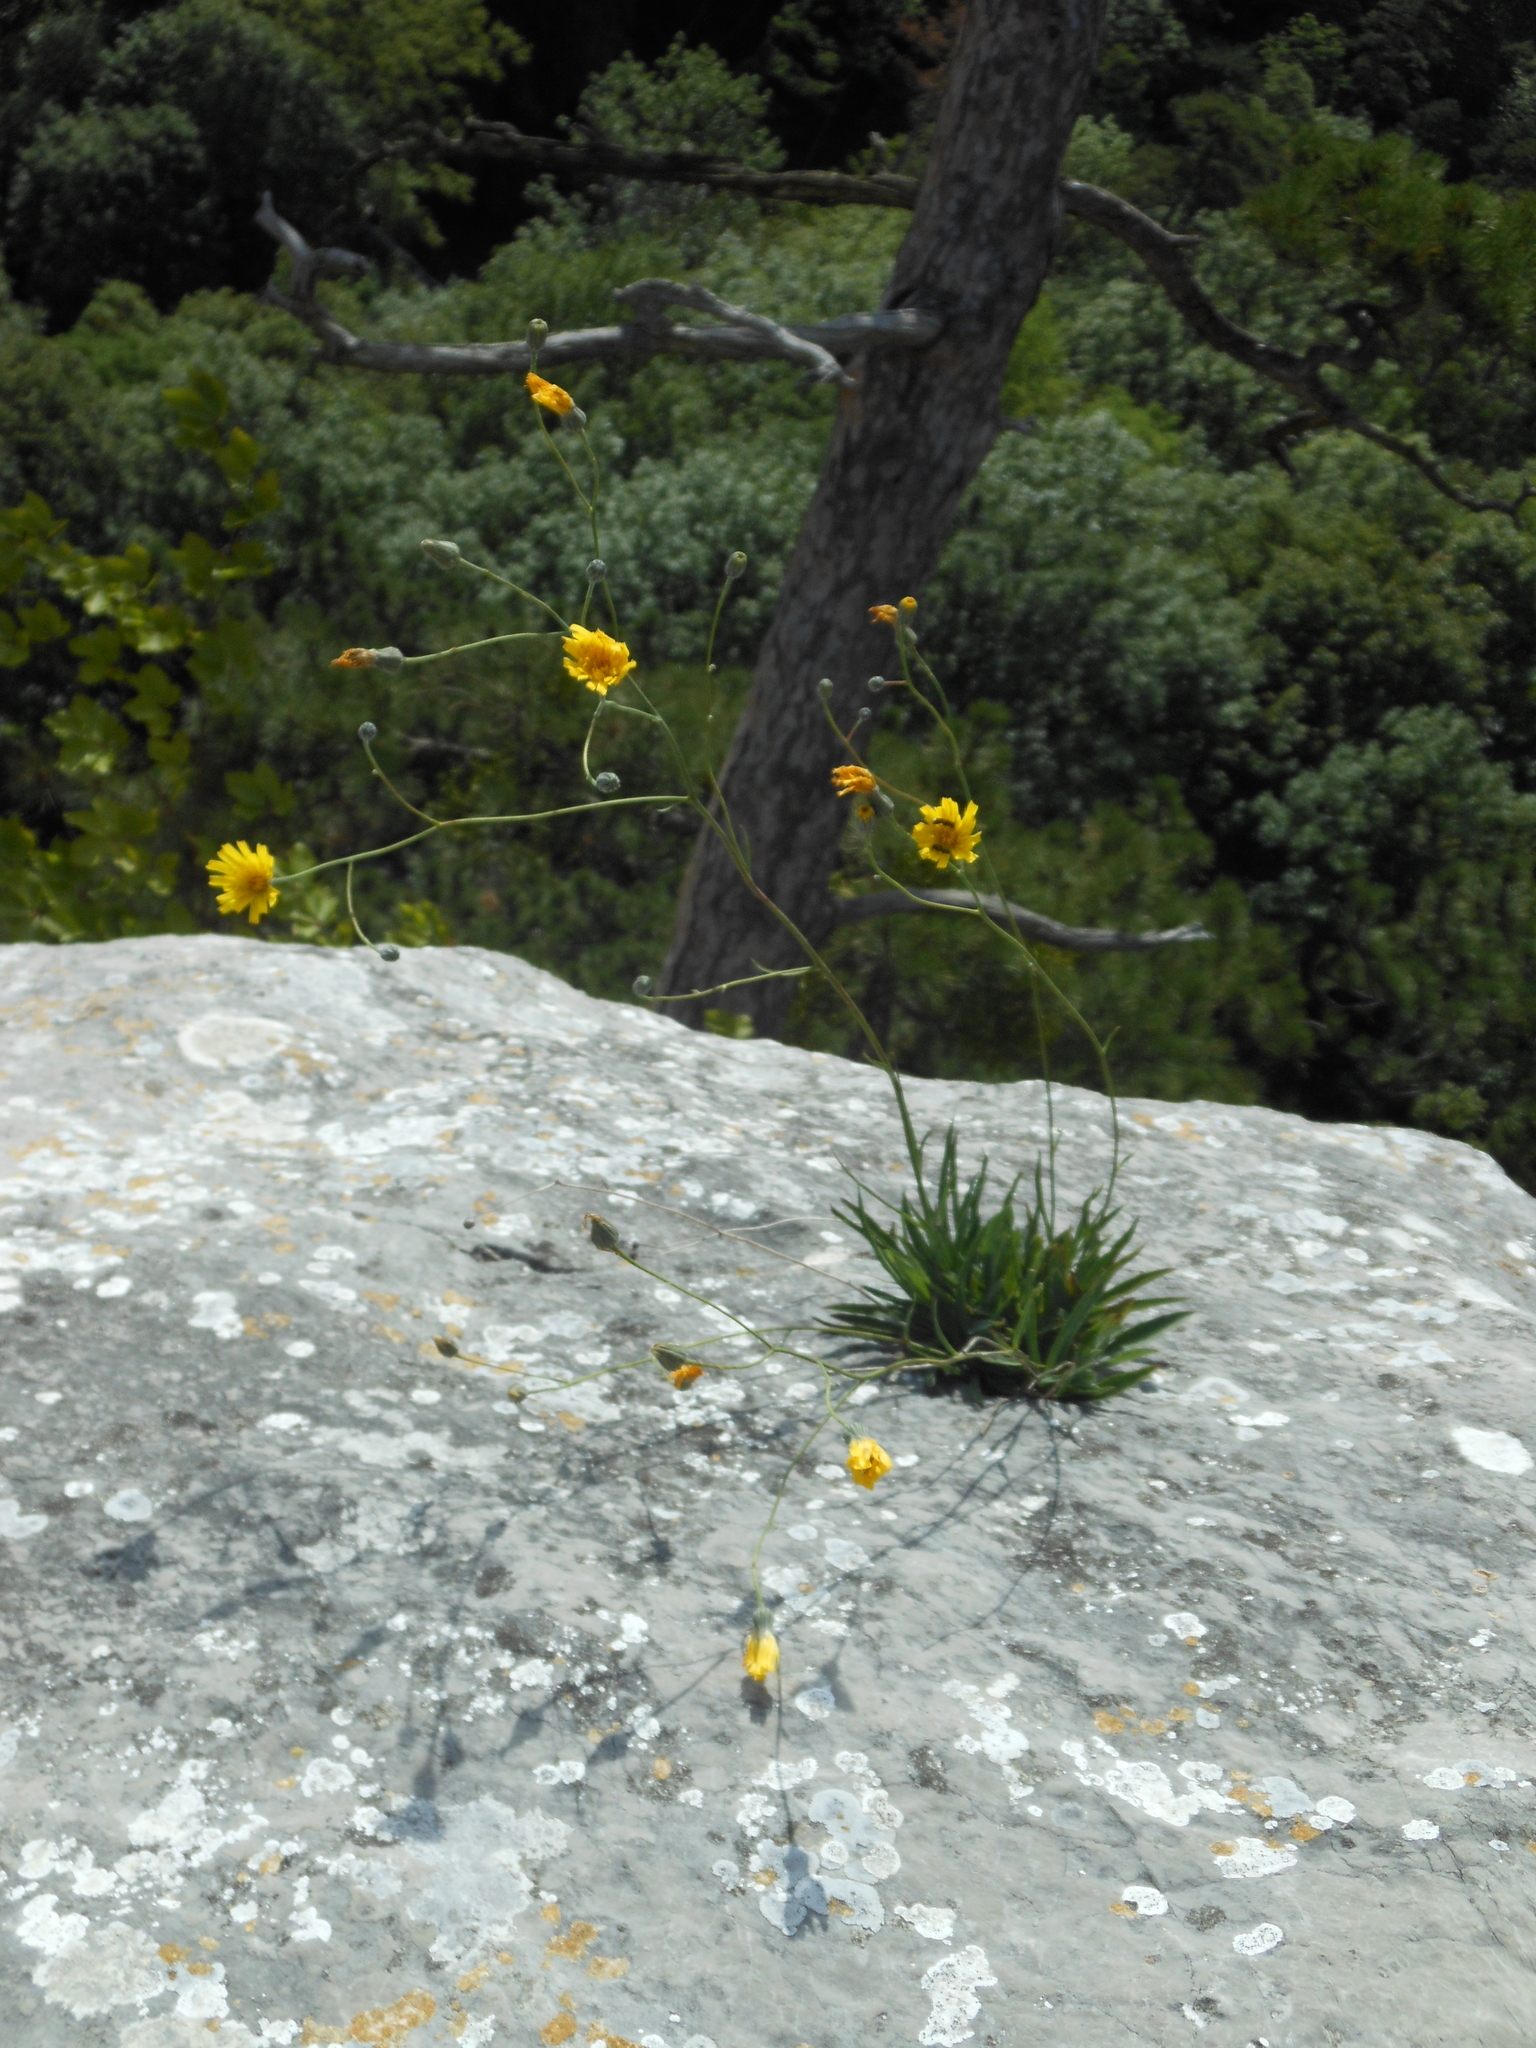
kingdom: Plantae
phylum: Tracheophyta
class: Magnoliopsida
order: Asterales
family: Asteraceae
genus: Hieracium
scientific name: Hieracium glaucum
